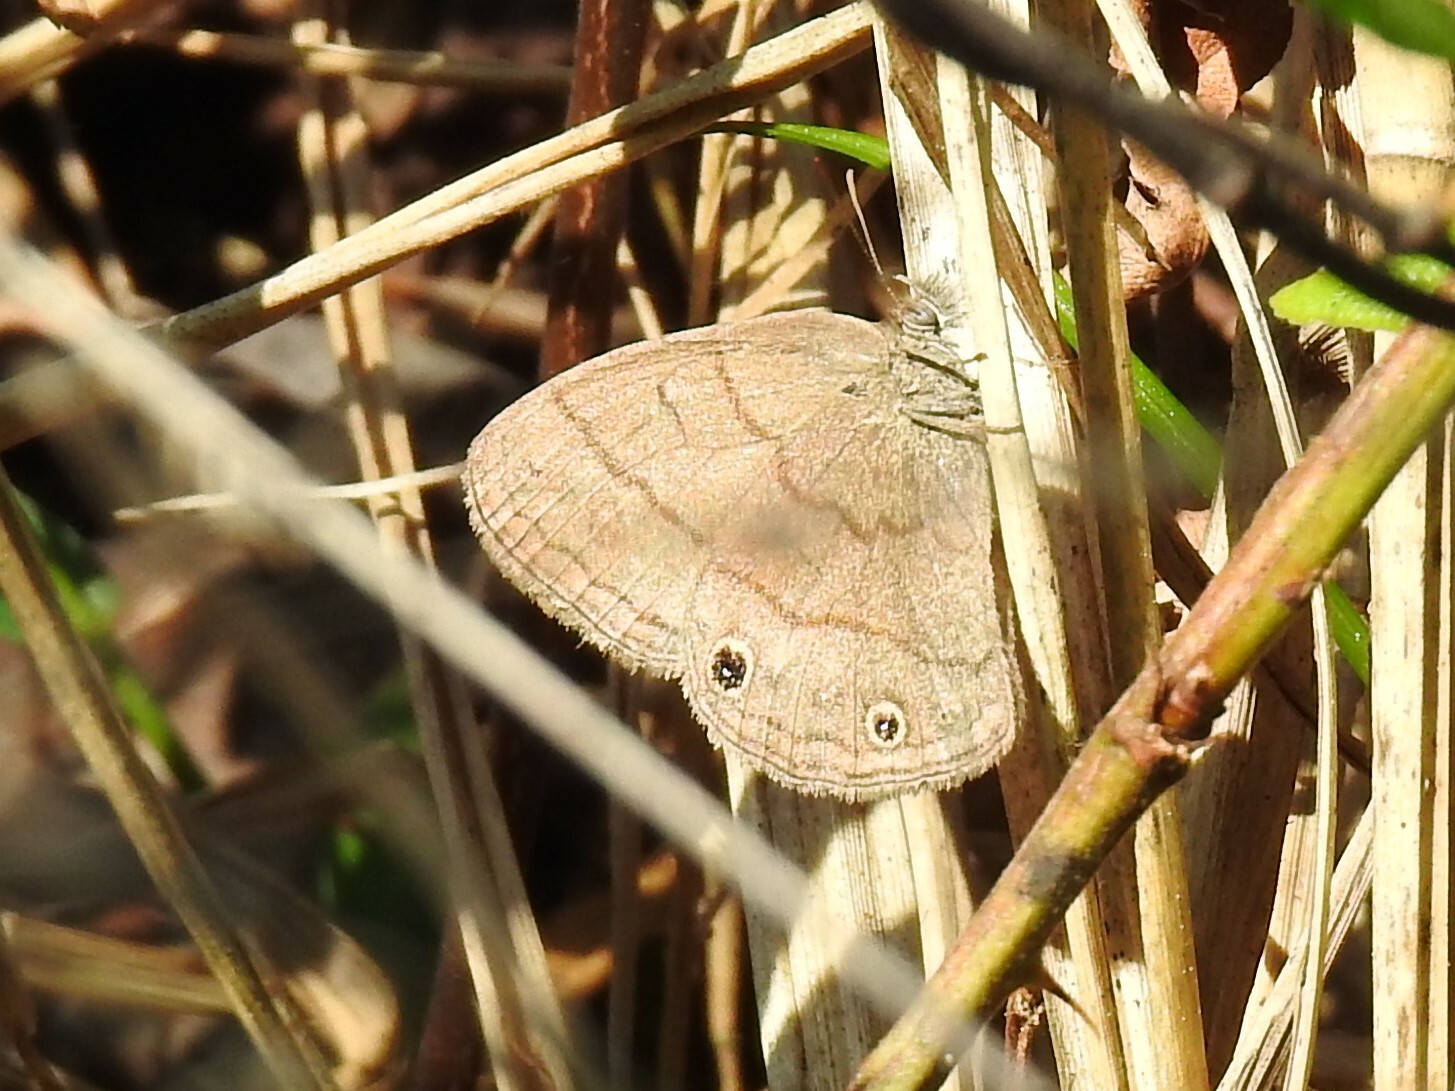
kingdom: Animalia
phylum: Arthropoda
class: Insecta
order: Lepidoptera
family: Nymphalidae
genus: Hermeuptychia
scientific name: Hermeuptychia hermes
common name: Hermes satyr
